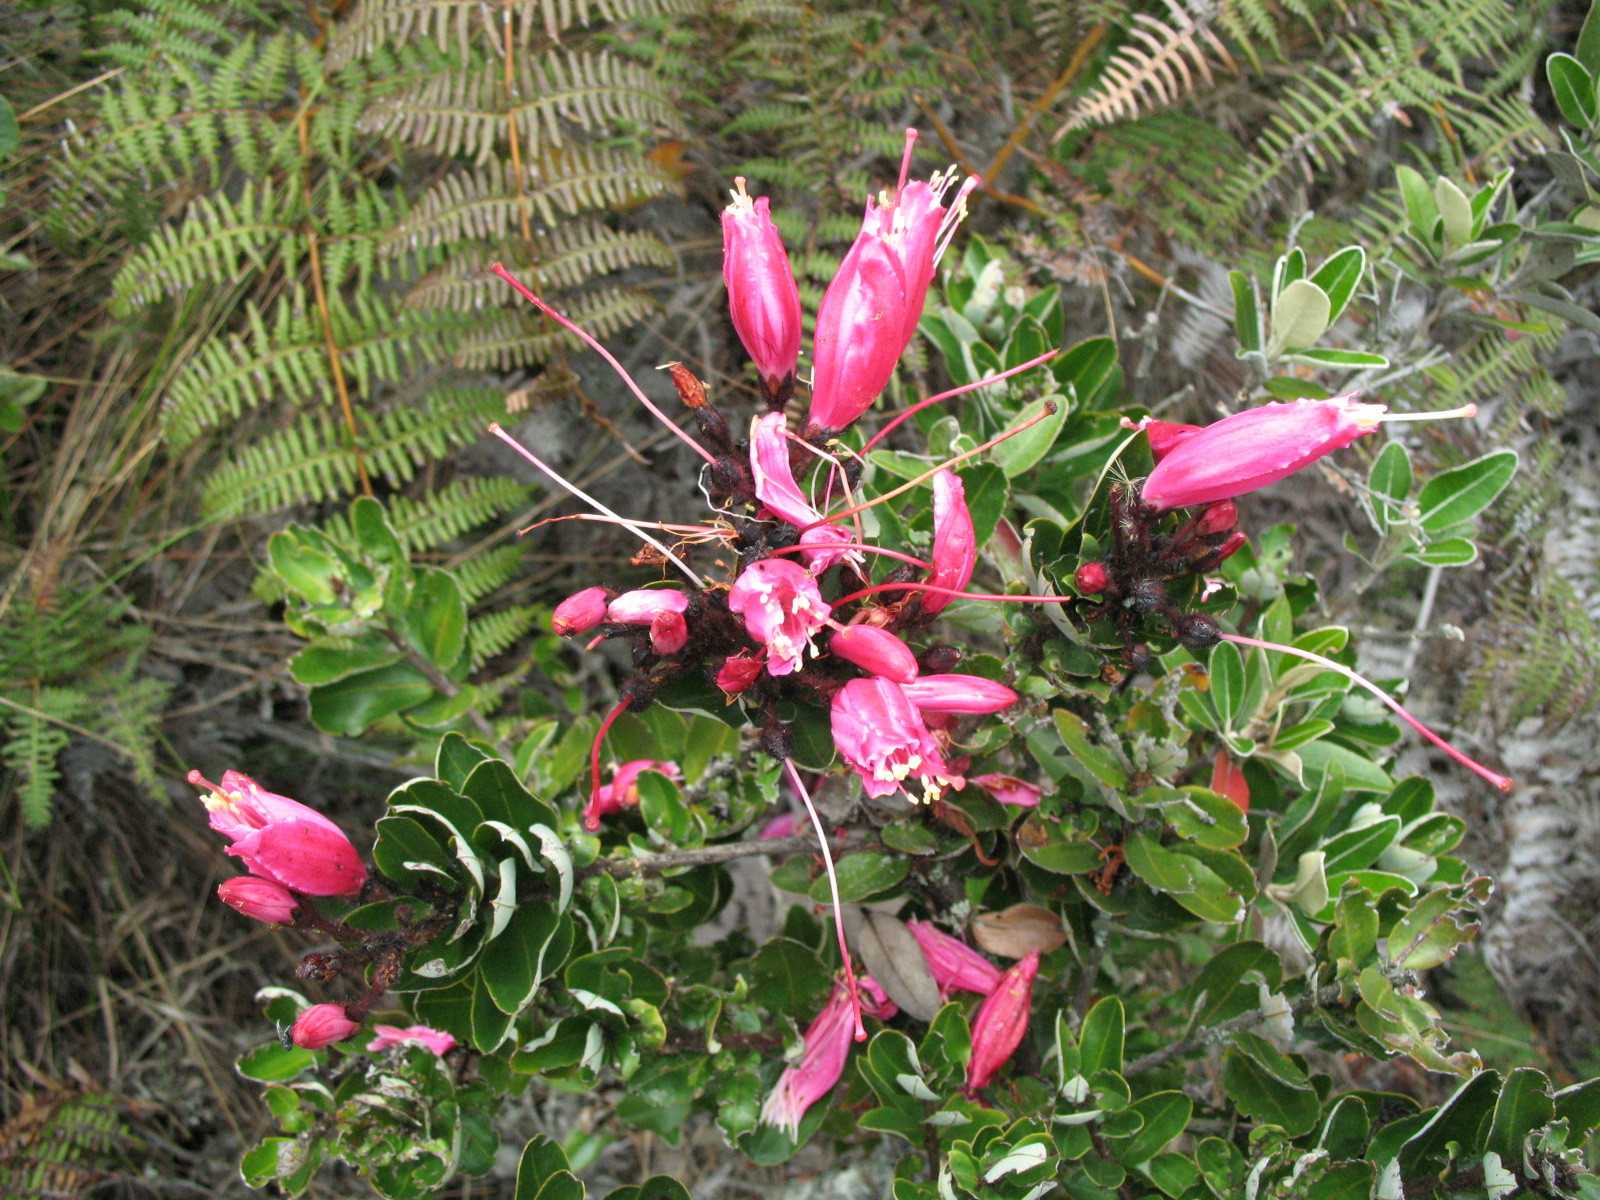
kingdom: Plantae
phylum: Tracheophyta
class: Magnoliopsida
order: Ericales
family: Ericaceae
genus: Bejaria
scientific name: Bejaria resinosa
